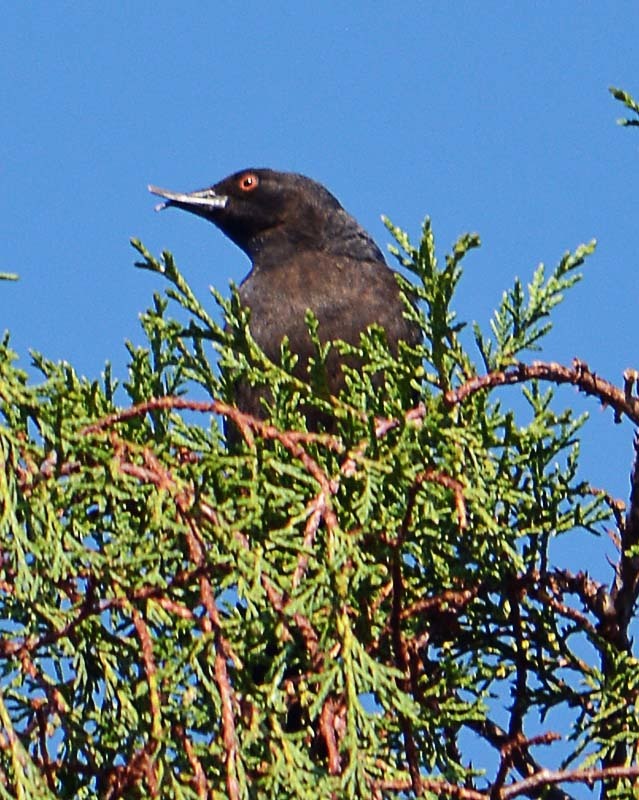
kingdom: Animalia
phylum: Chordata
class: Aves
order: Passeriformes
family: Icteridae
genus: Molothrus
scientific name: Molothrus aeneus
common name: Bronzed cowbird
